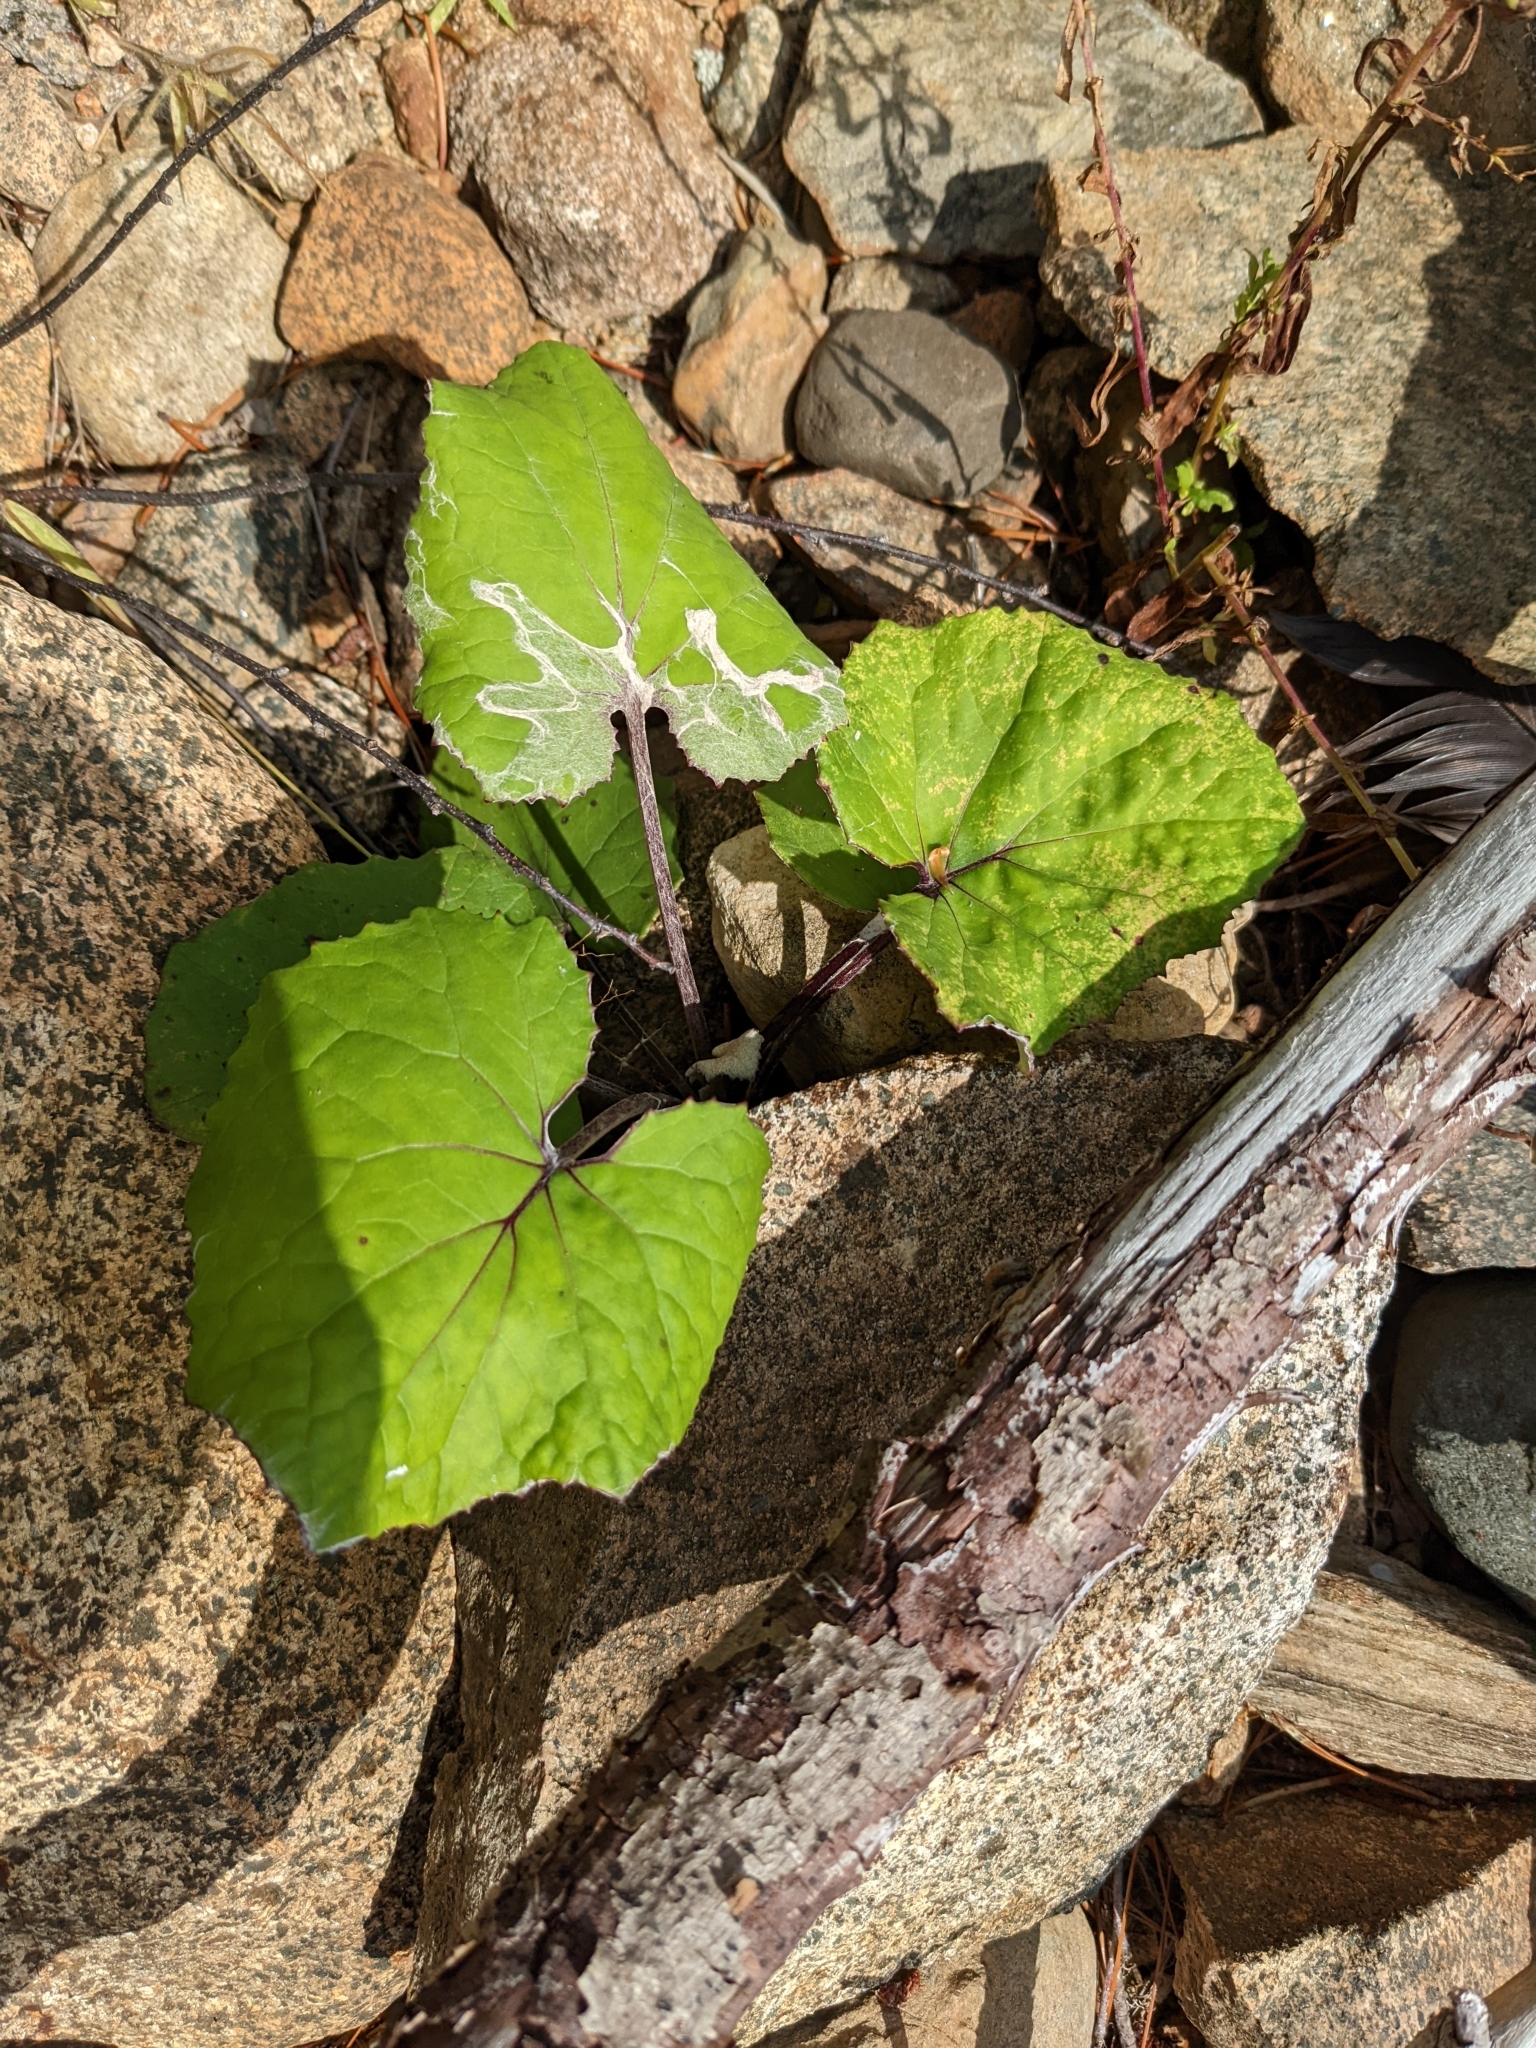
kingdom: Plantae
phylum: Tracheophyta
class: Magnoliopsida
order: Asterales
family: Asteraceae
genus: Tussilago
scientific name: Tussilago farfara
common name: Coltsfoot
